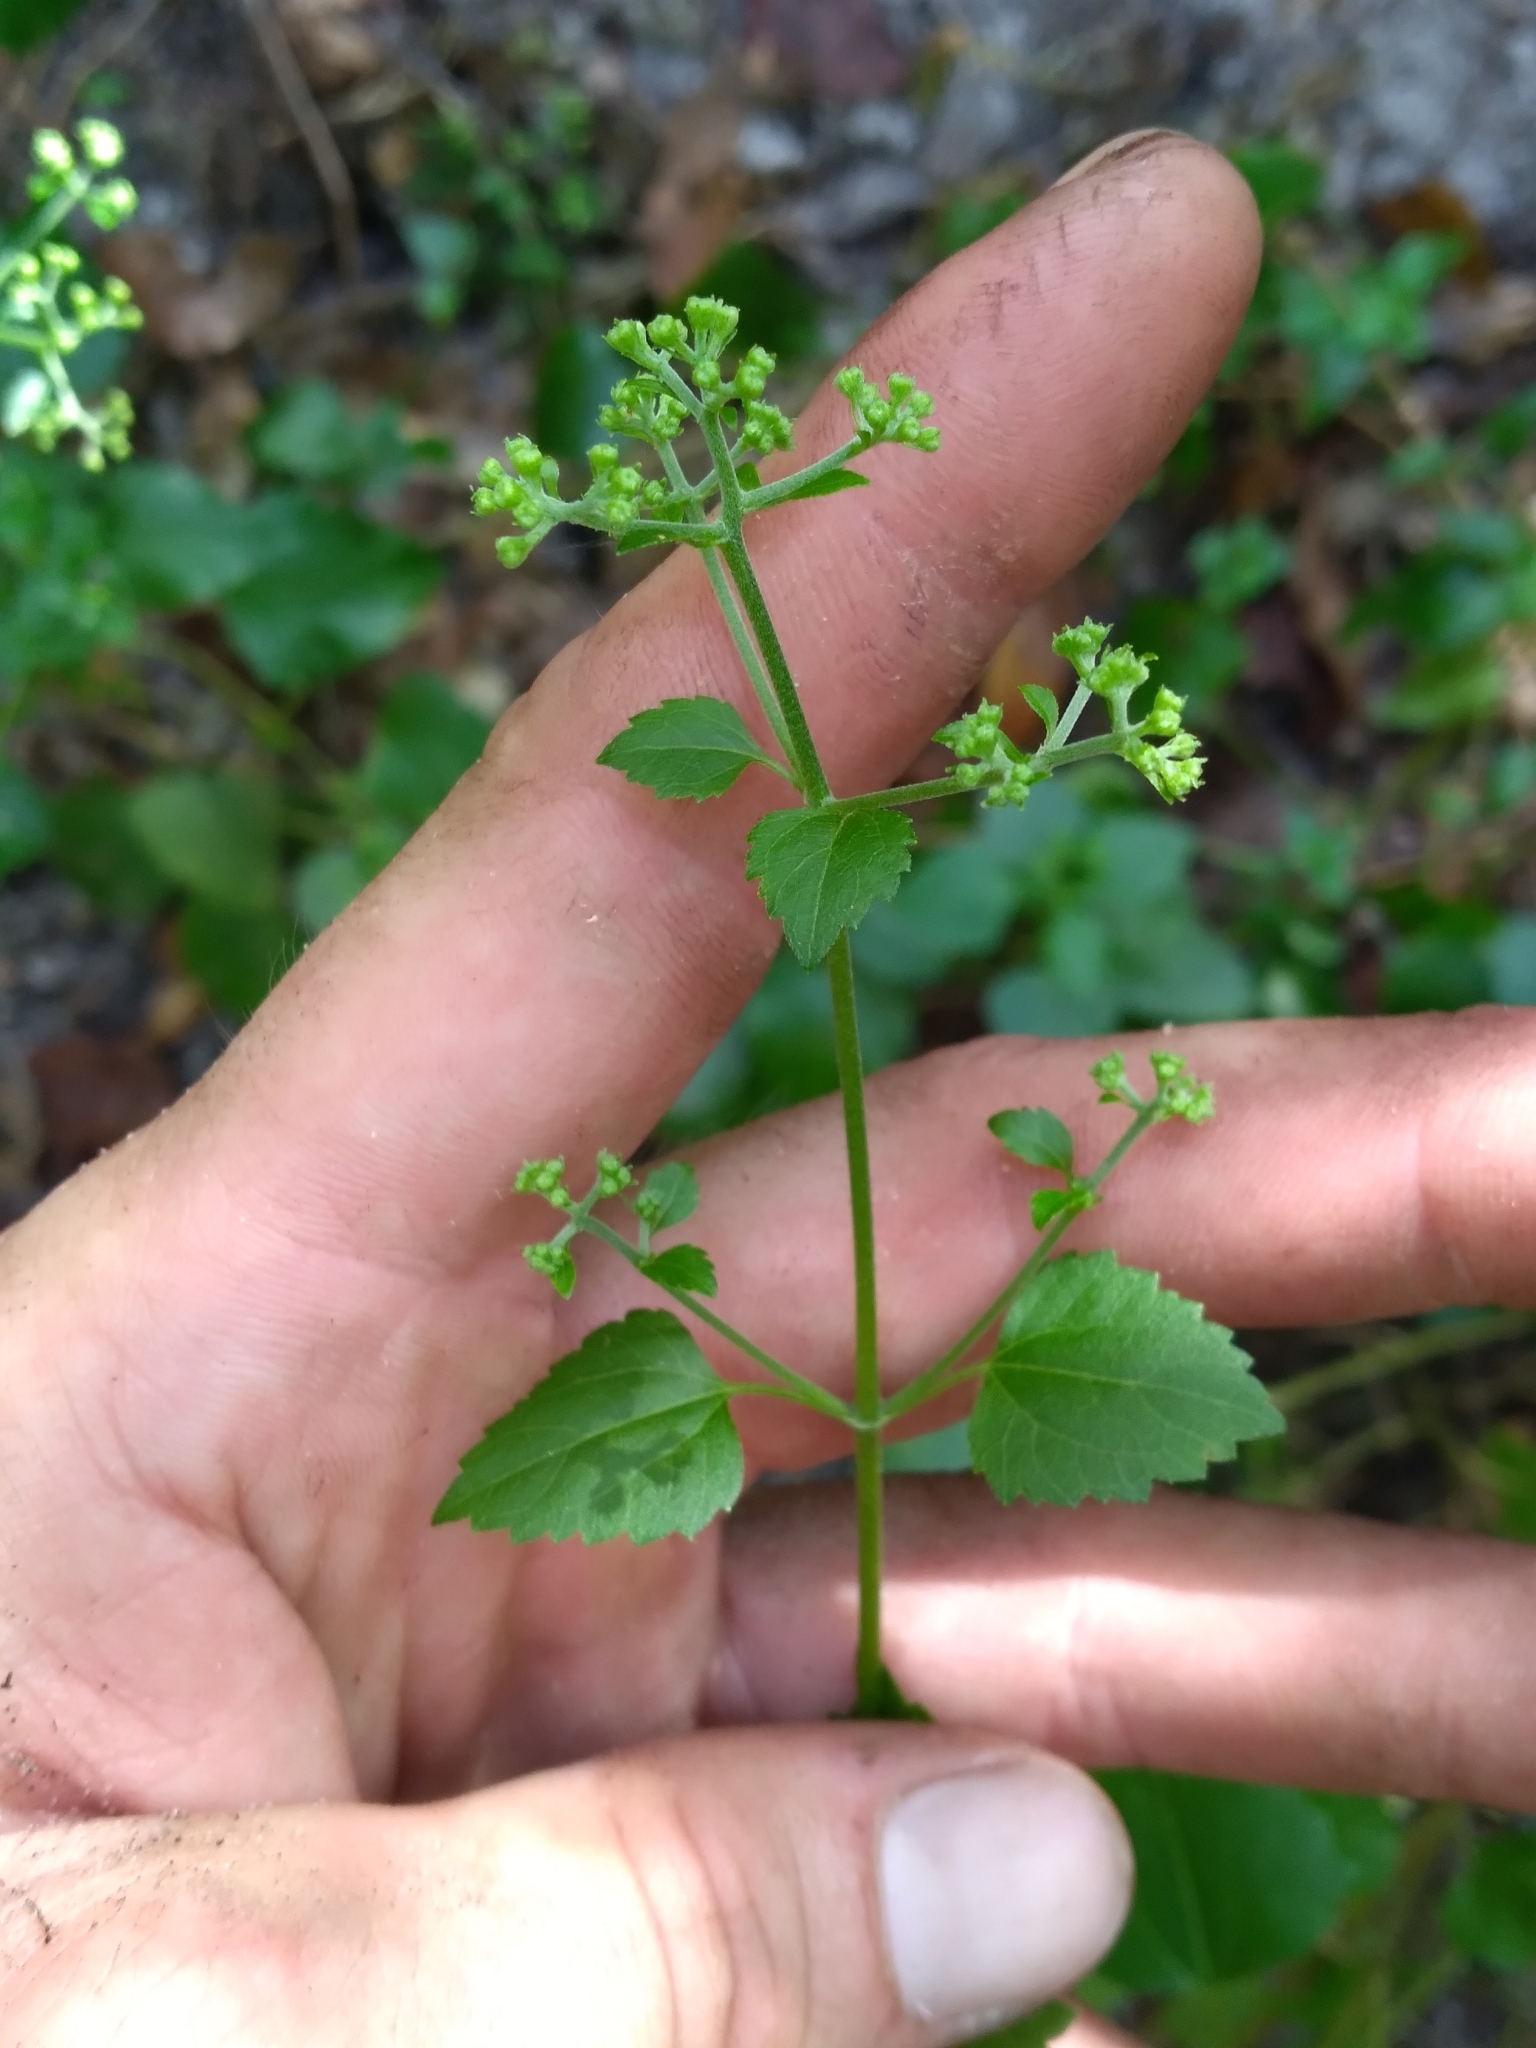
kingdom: Plantae
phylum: Tracheophyta
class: Magnoliopsida
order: Asterales
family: Asteraceae
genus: Ageratina
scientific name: Ageratina jucunda
